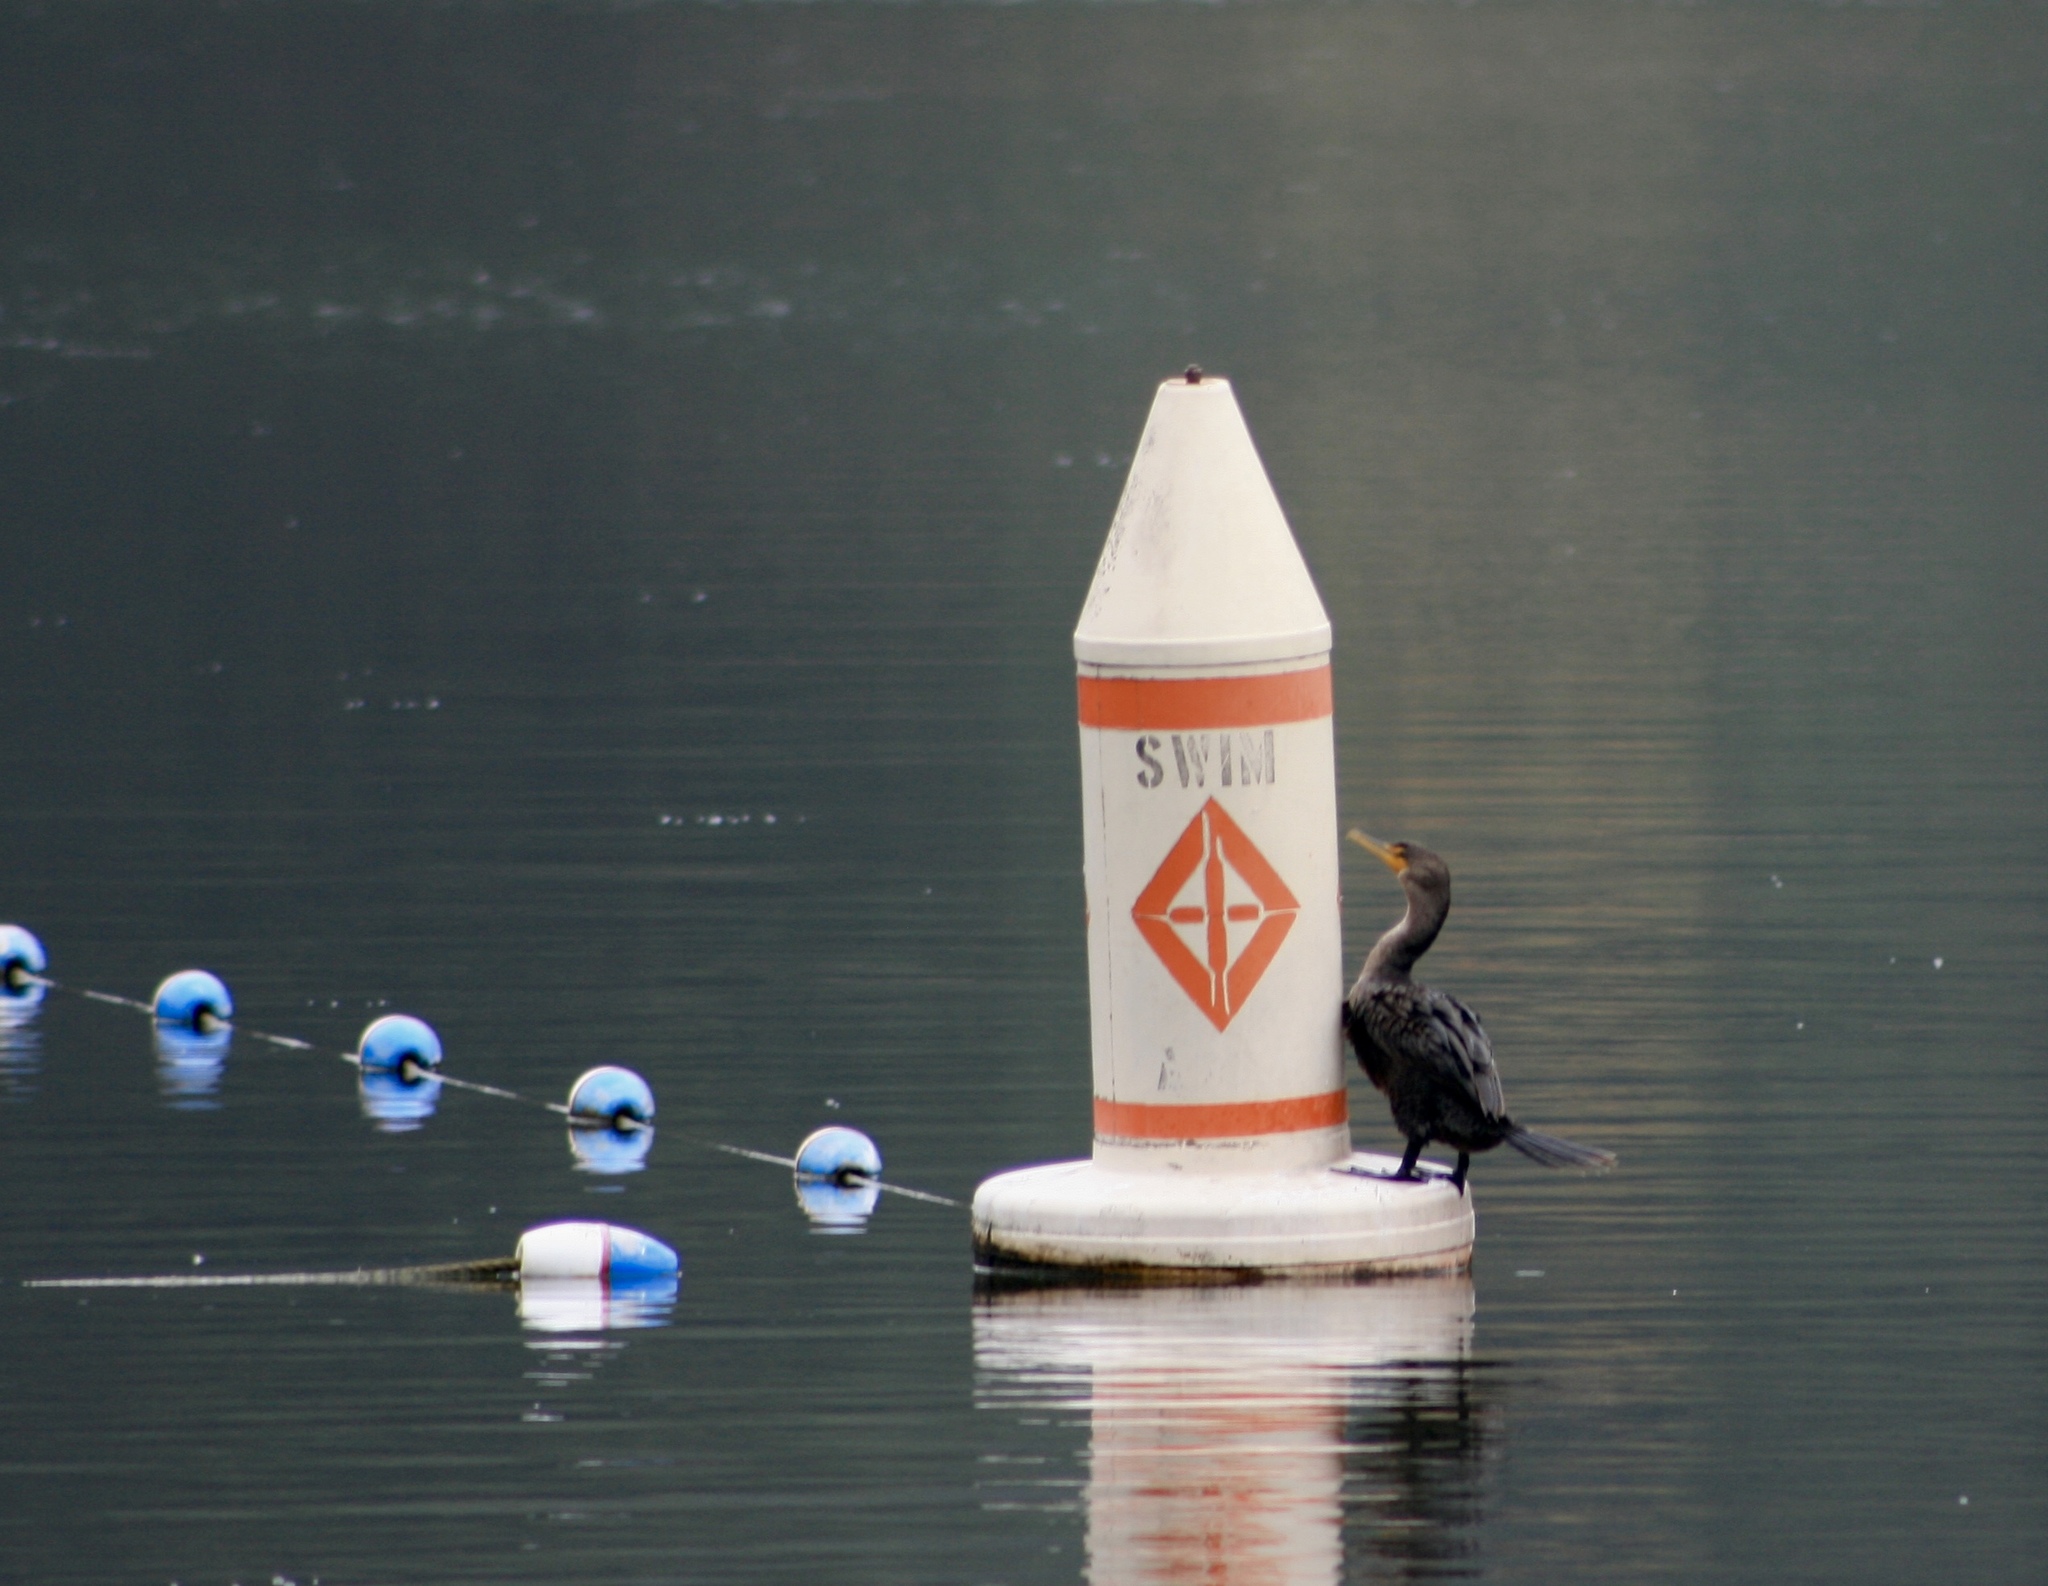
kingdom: Animalia
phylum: Chordata
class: Aves
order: Suliformes
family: Phalacrocoracidae
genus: Phalacrocorax
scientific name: Phalacrocorax auritus
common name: Double-crested cormorant
